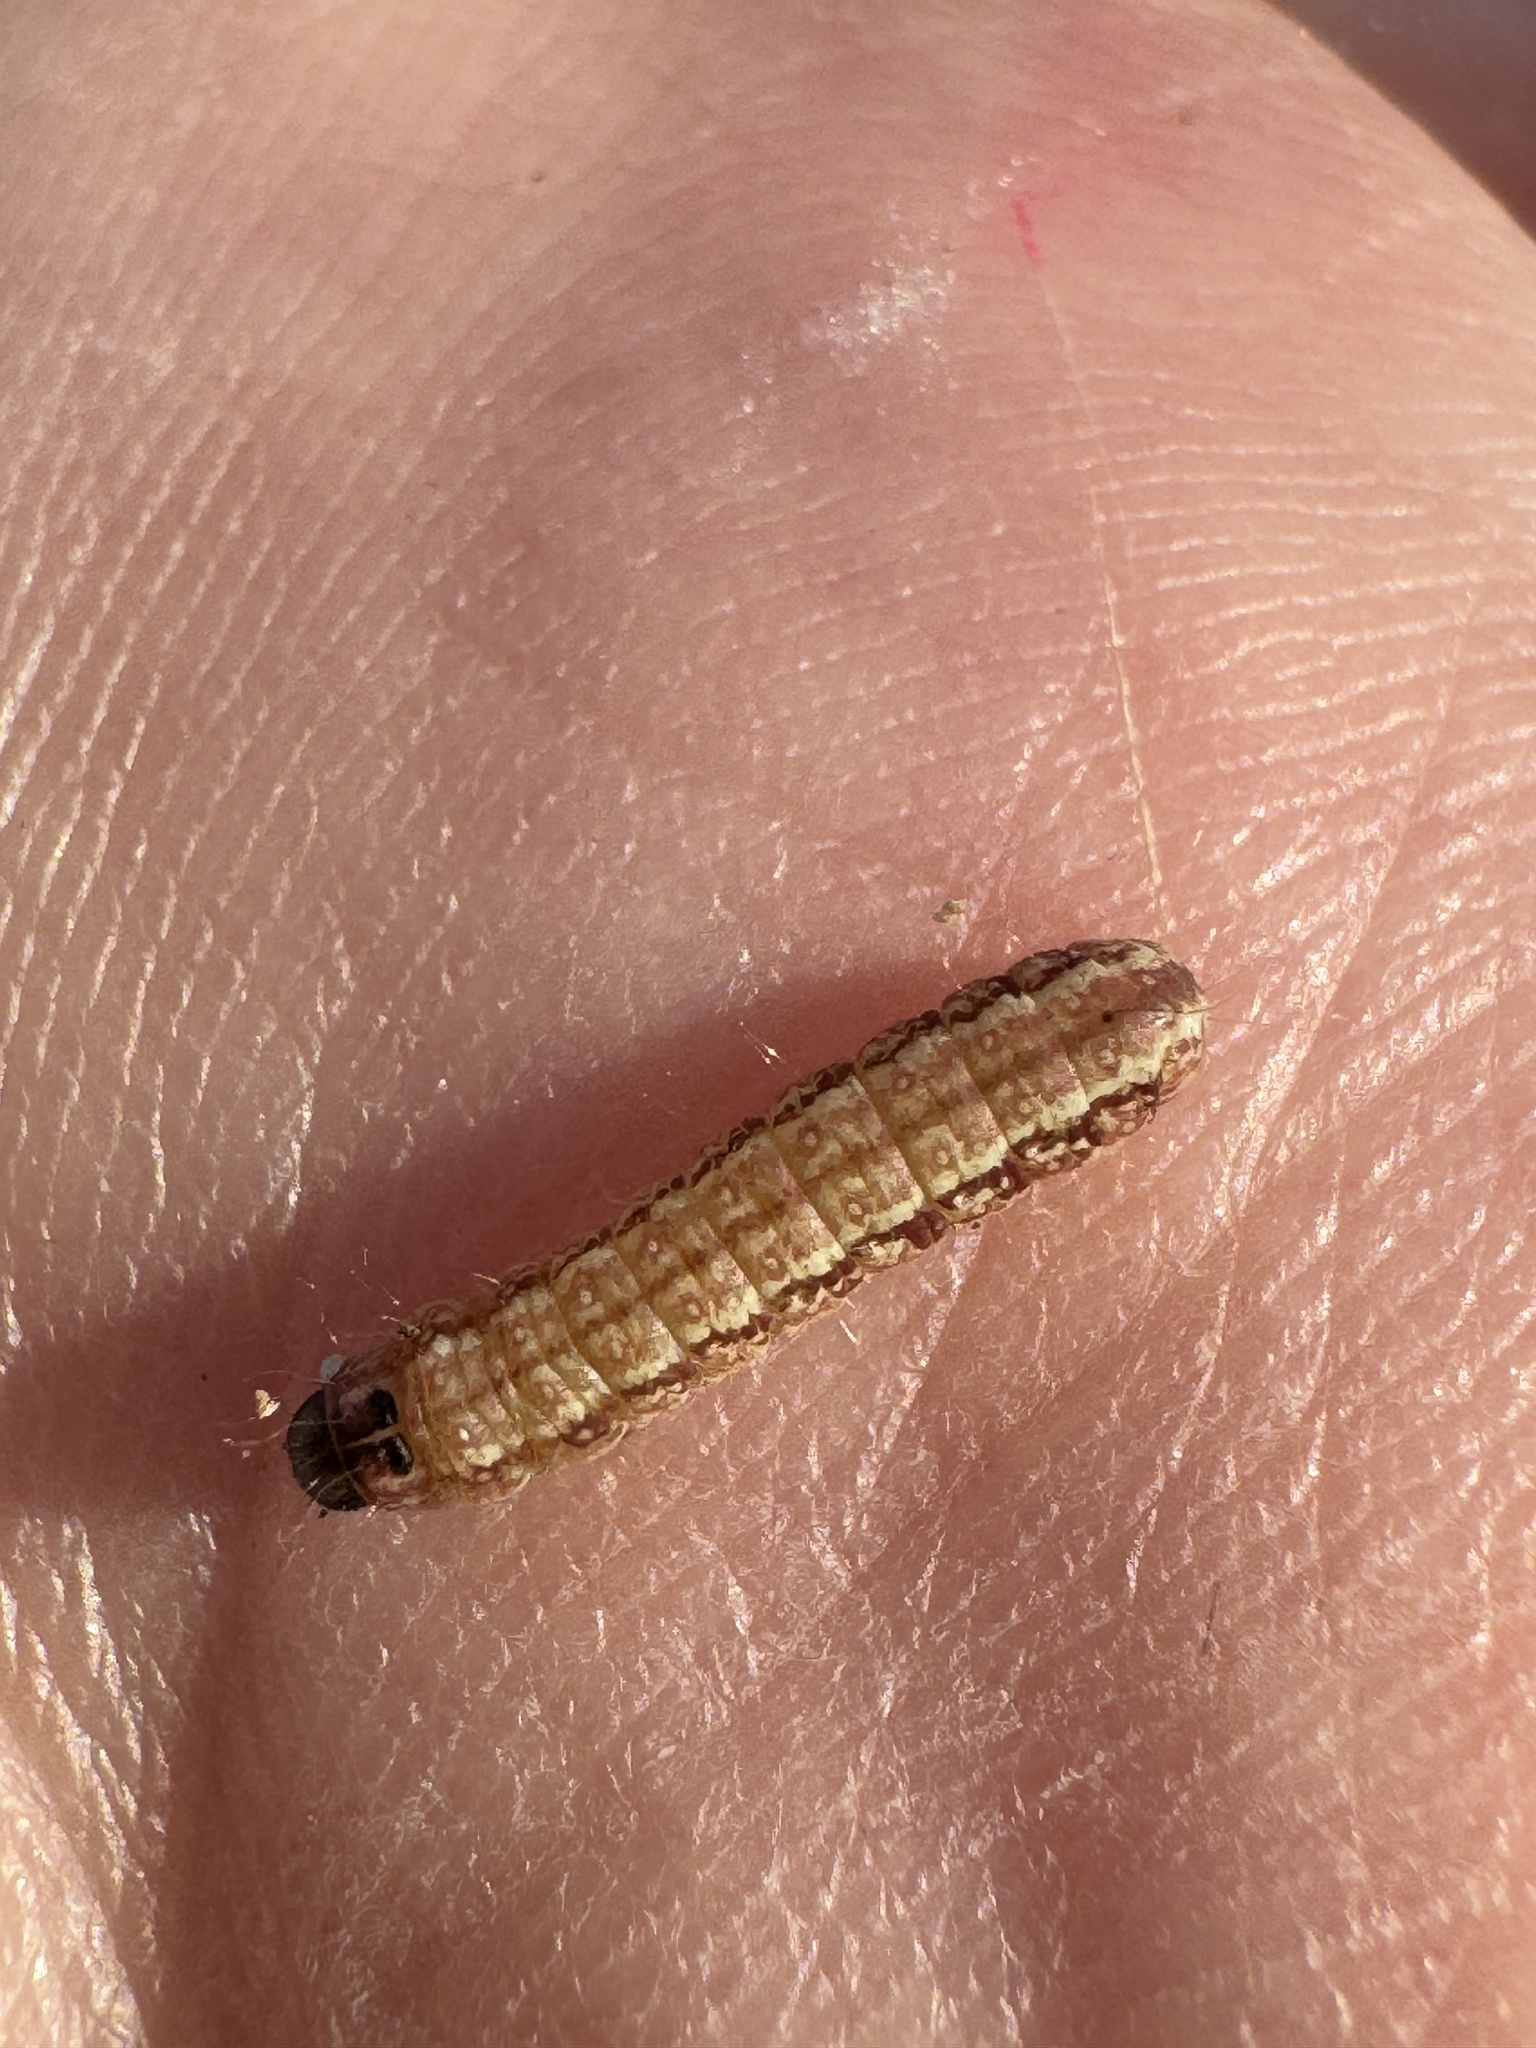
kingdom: Animalia
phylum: Arthropoda
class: Insecta
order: Lepidoptera
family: Nolidae
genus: Garella
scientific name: Garella nilotica
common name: Black-olive caterpillar moth
